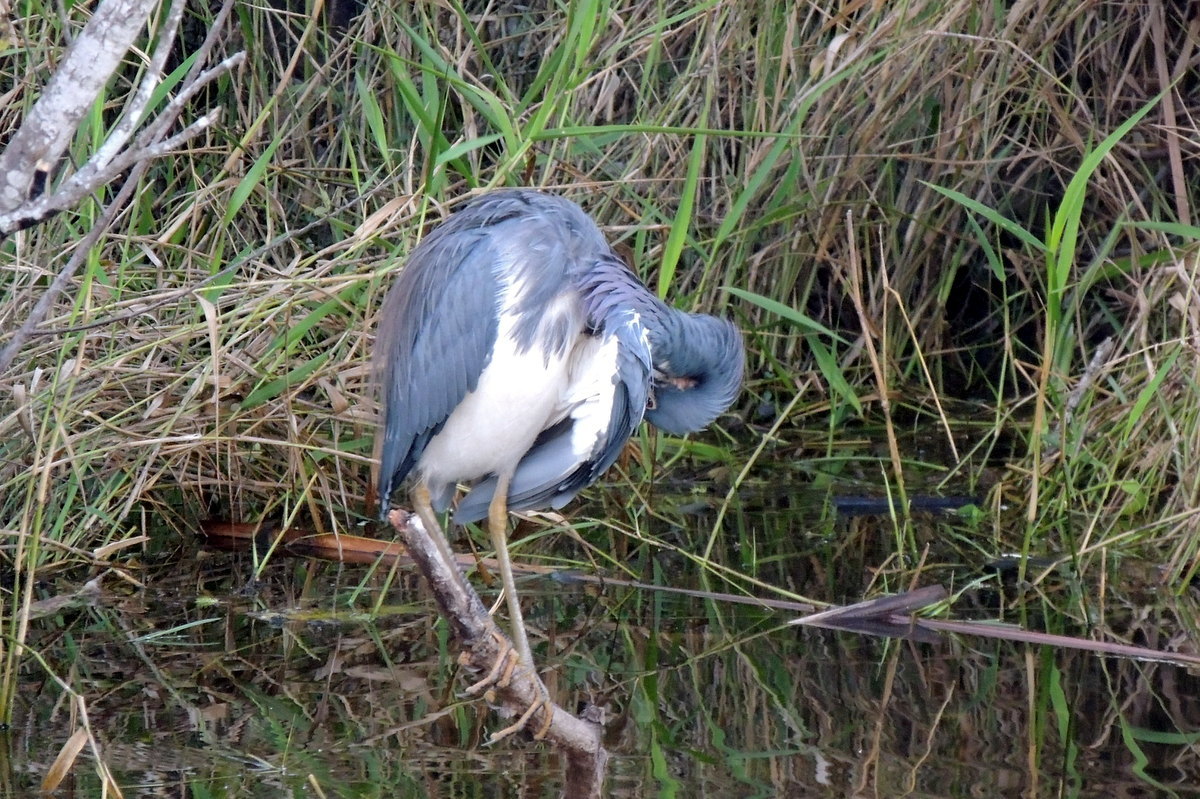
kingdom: Animalia
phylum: Chordata
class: Aves
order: Pelecaniformes
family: Ardeidae
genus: Egretta
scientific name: Egretta tricolor
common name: Tricolored heron
